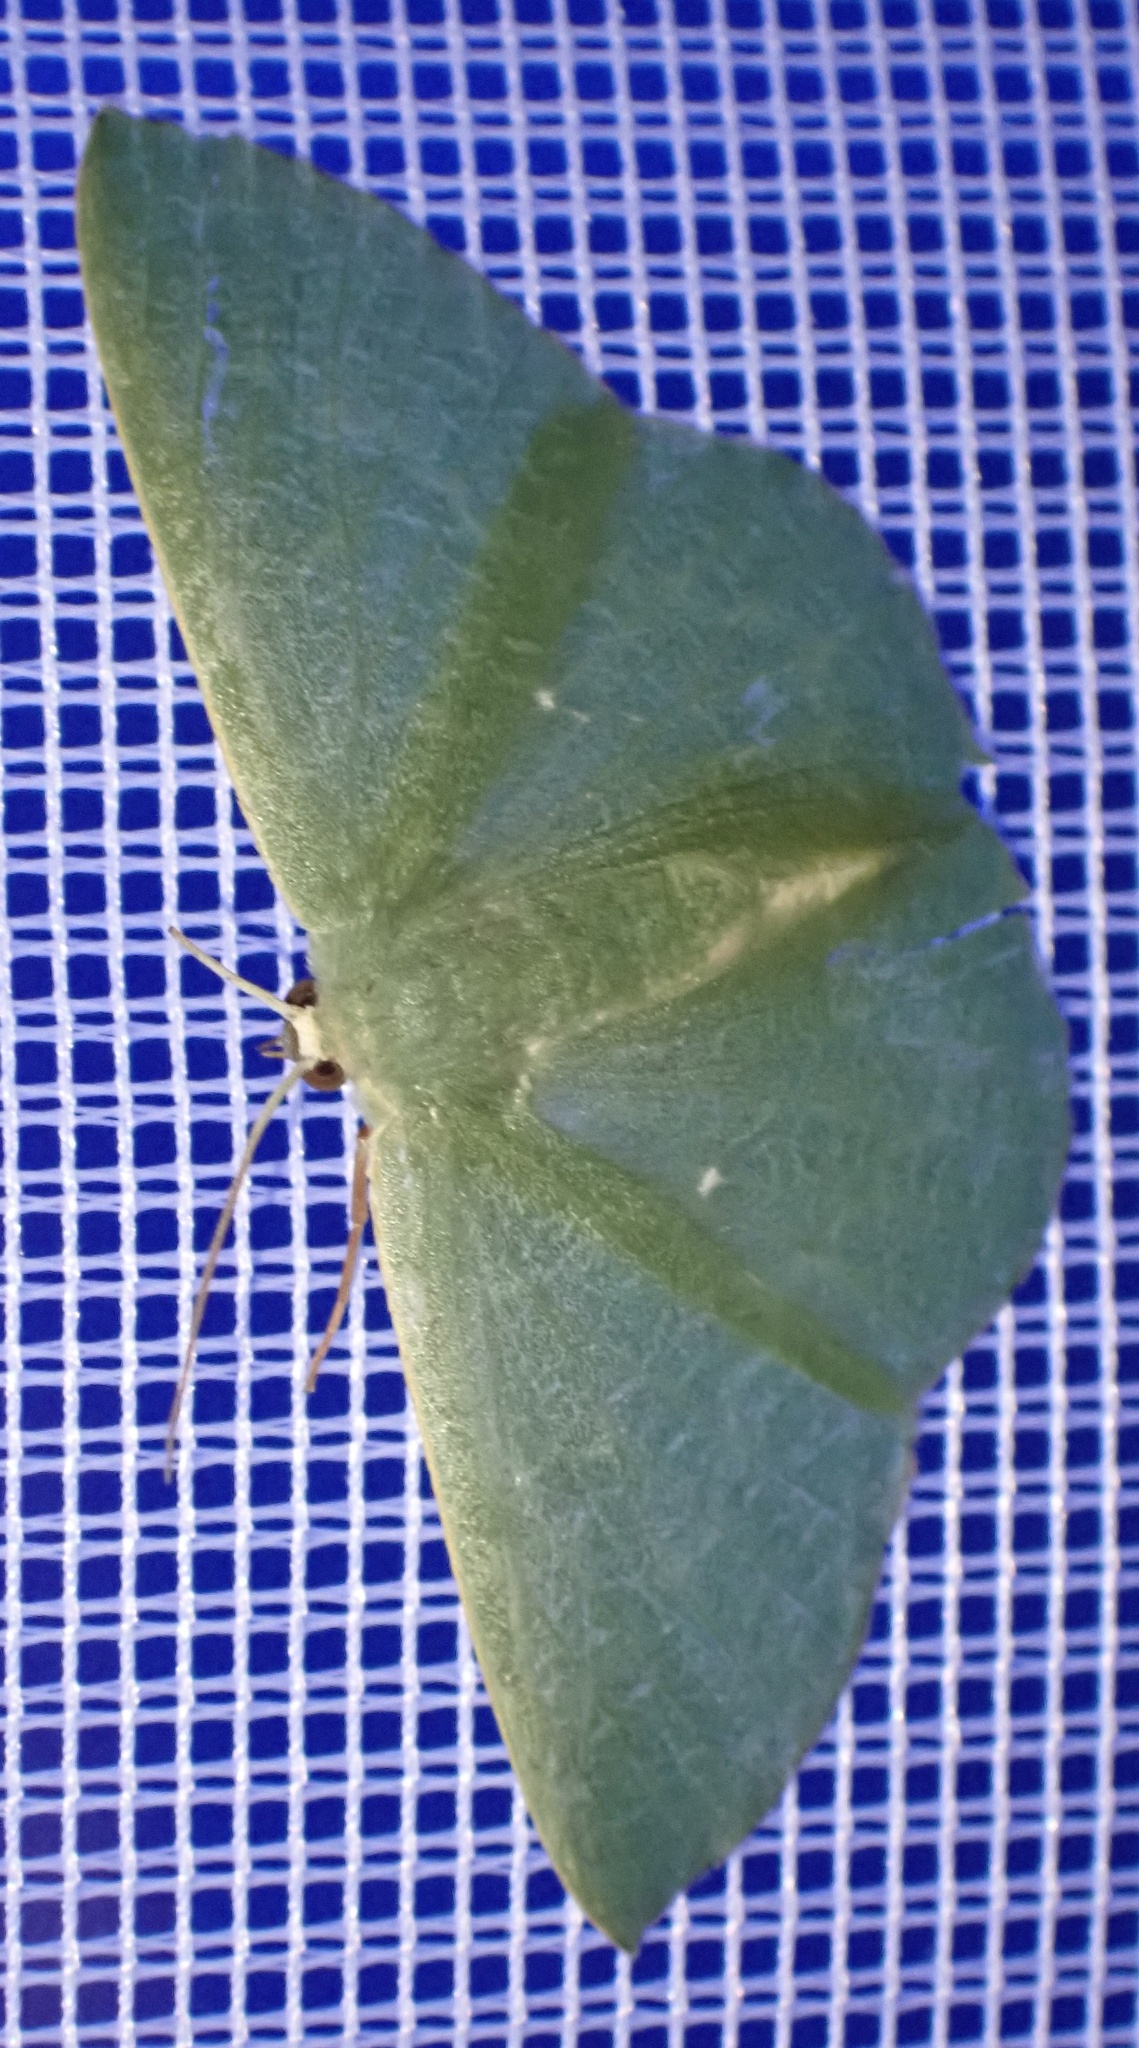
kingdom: Animalia
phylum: Arthropoda
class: Insecta
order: Lepidoptera
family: Geometridae
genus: Eretmopus
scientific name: Eretmopus marinaria
